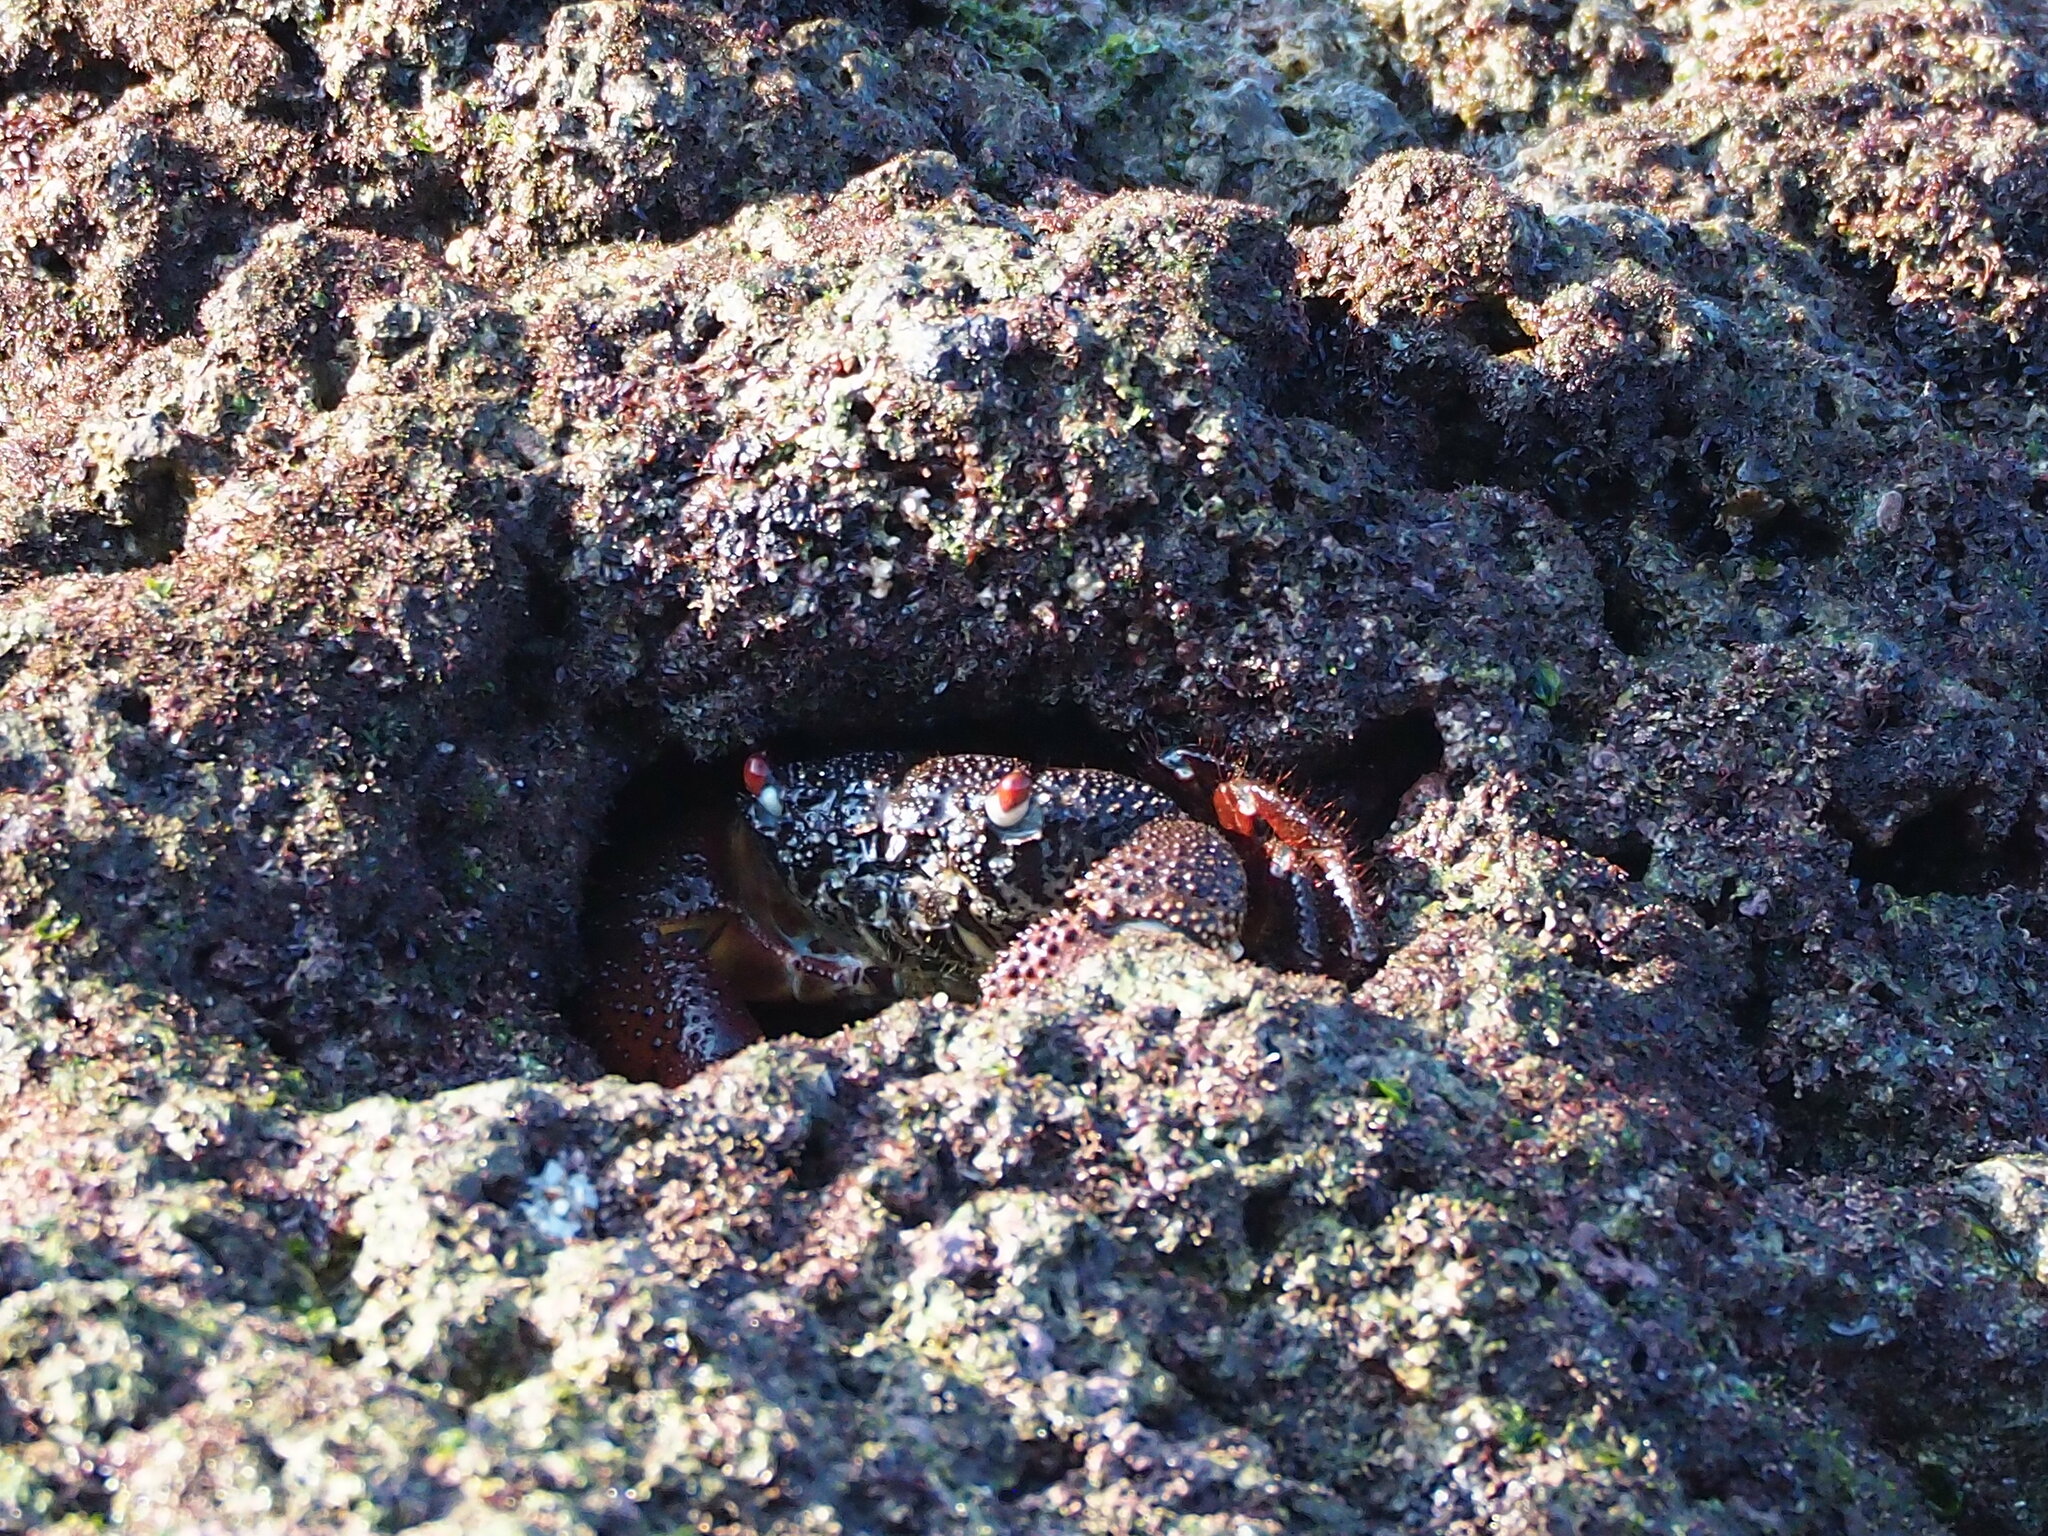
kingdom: Animalia
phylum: Arthropoda
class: Malacostraca
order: Decapoda
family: Eriphiidae
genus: Eriphia
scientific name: Eriphia ferox
